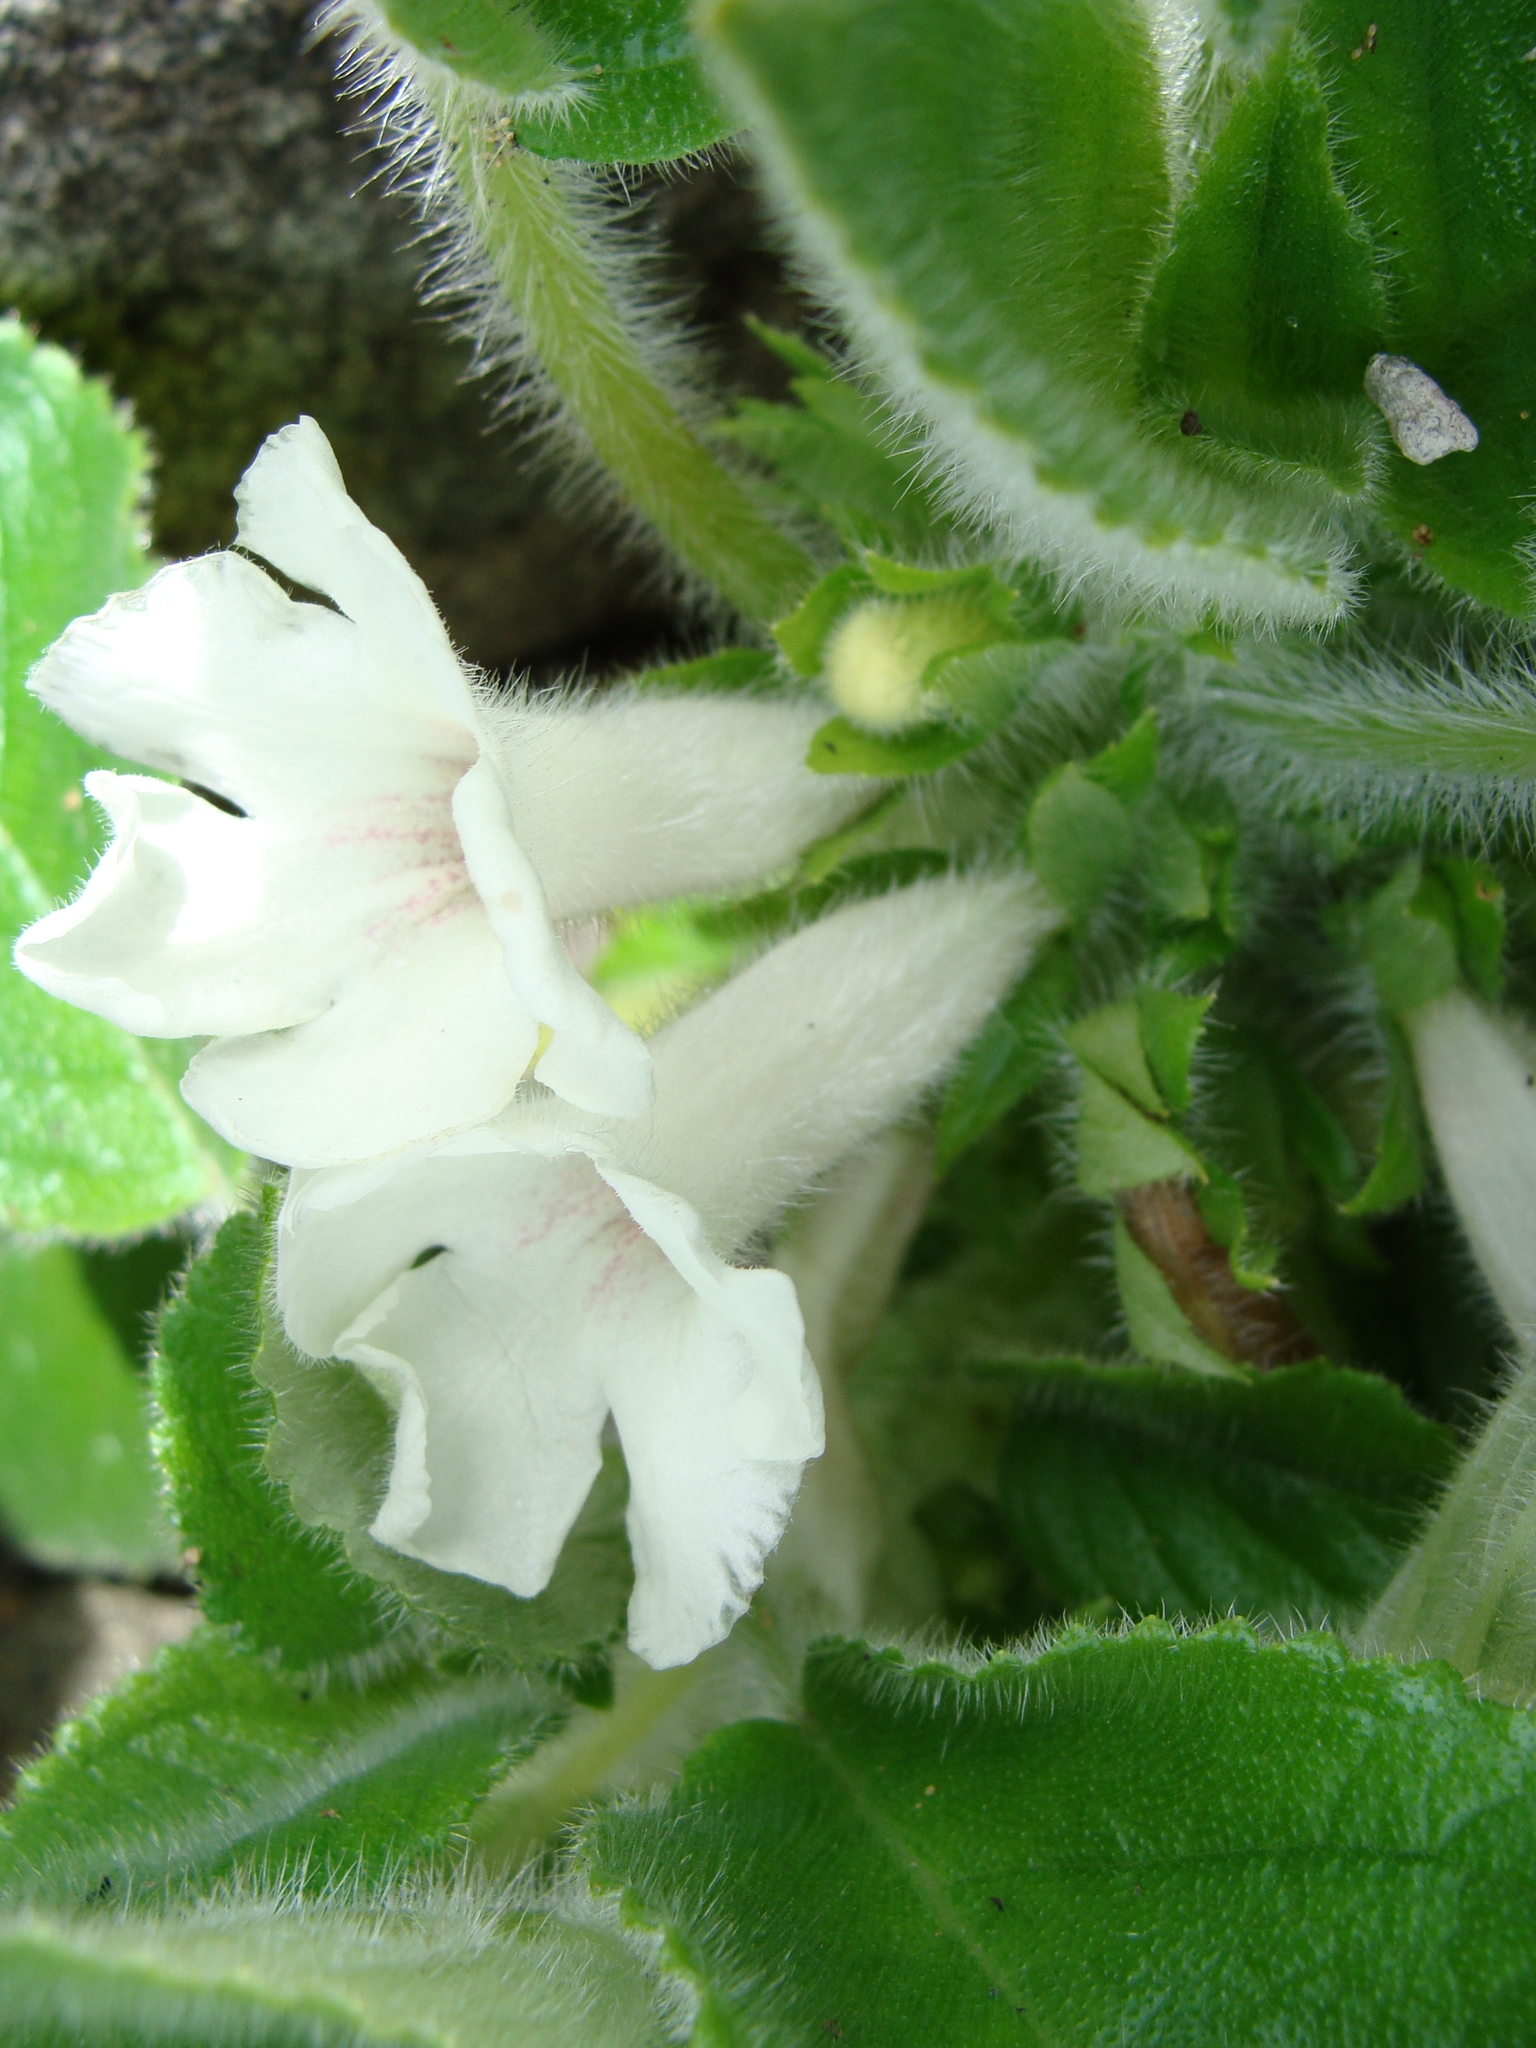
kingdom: Plantae
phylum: Tracheophyta
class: Magnoliopsida
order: Lamiales
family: Gesneriaceae
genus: Chrysothemis
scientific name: Chrysothemis panamensis
